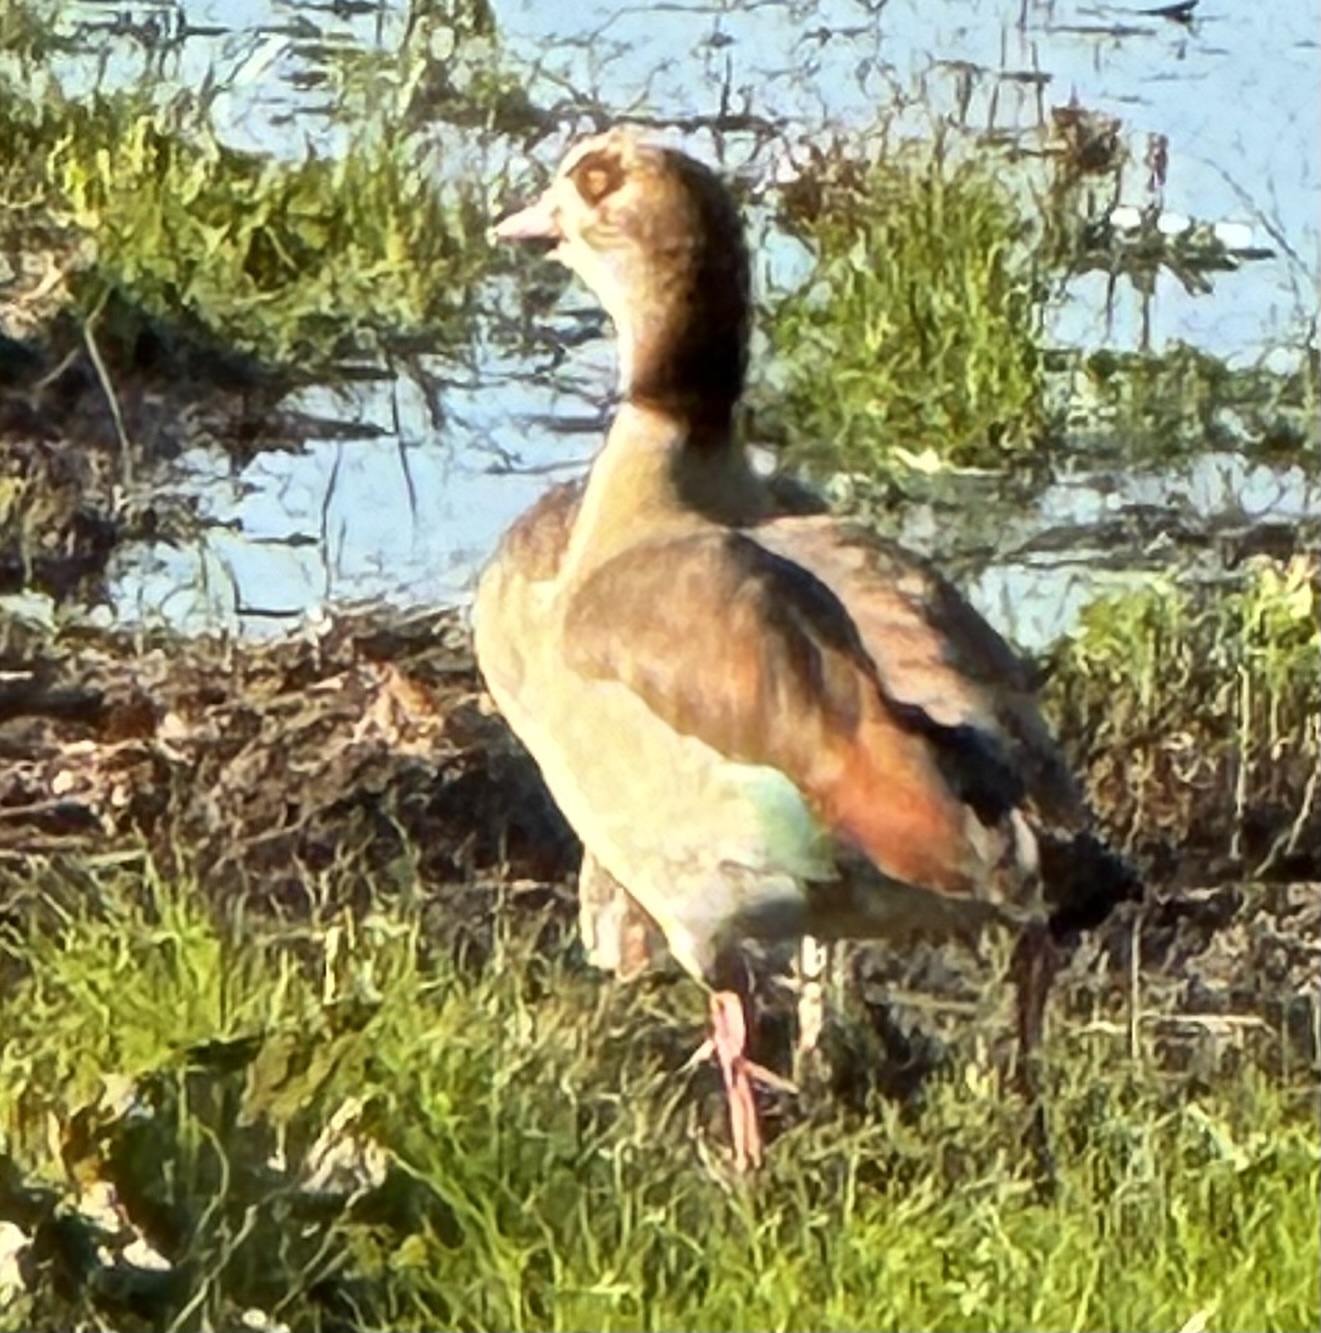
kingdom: Animalia
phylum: Chordata
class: Aves
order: Anseriformes
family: Anatidae
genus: Alopochen
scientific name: Alopochen aegyptiaca
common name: Egyptian goose
